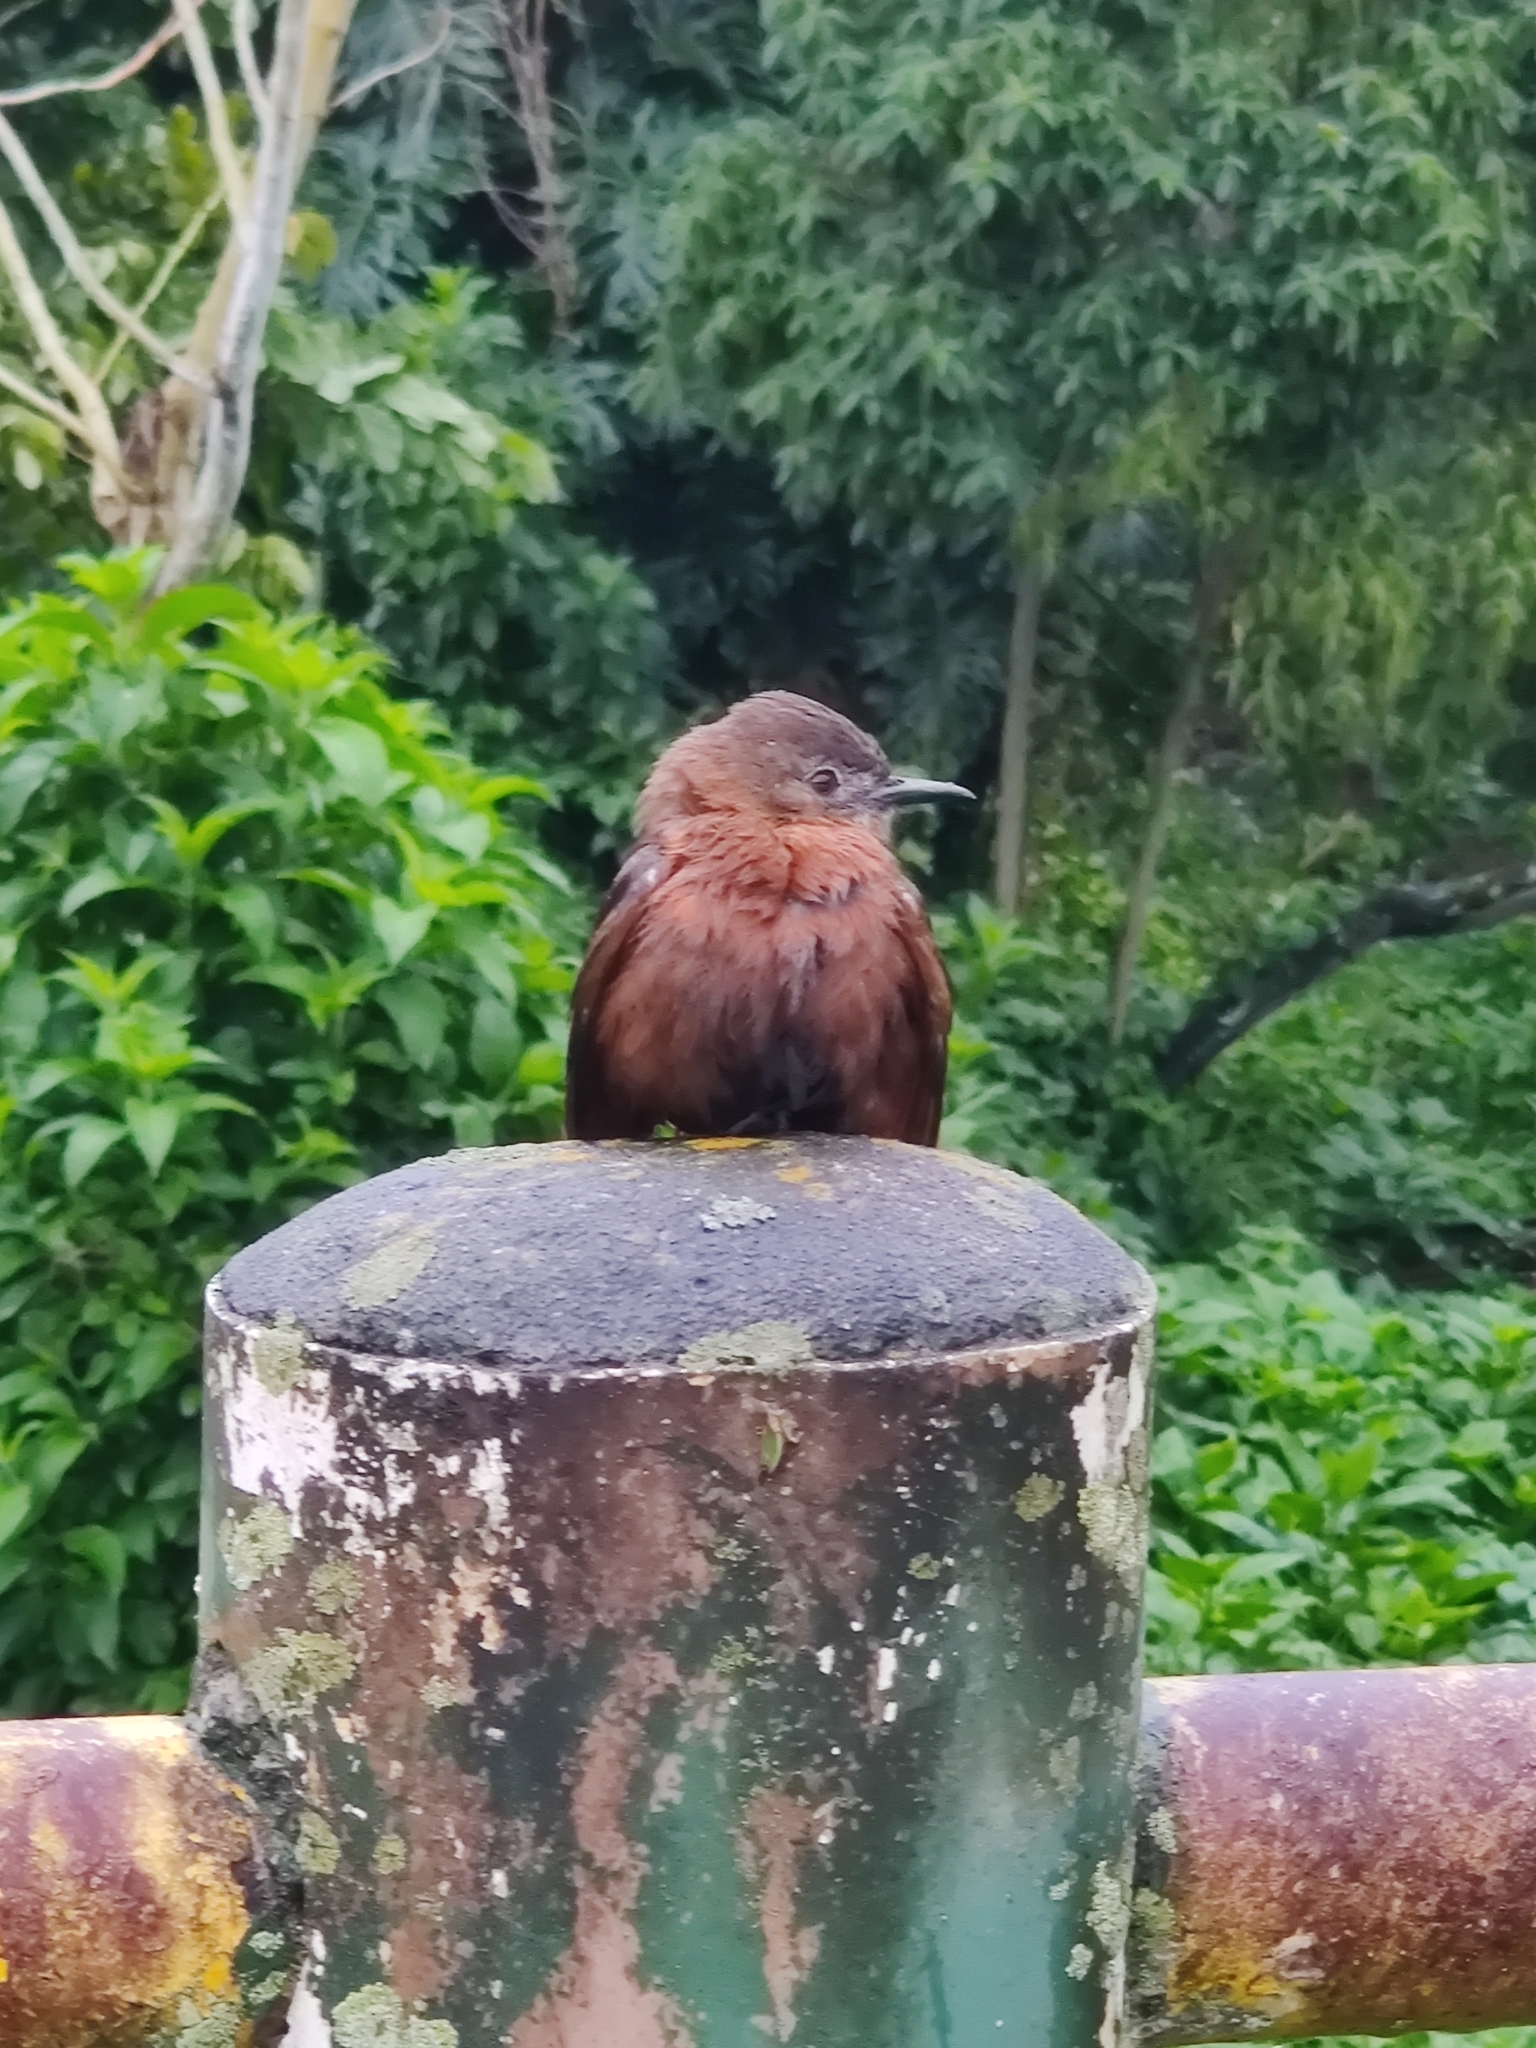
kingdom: Animalia
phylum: Chordata
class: Aves
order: Passeriformes
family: Tyrannidae
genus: Hirundinea
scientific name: Hirundinea ferruginea
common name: Cliff flycatcher
